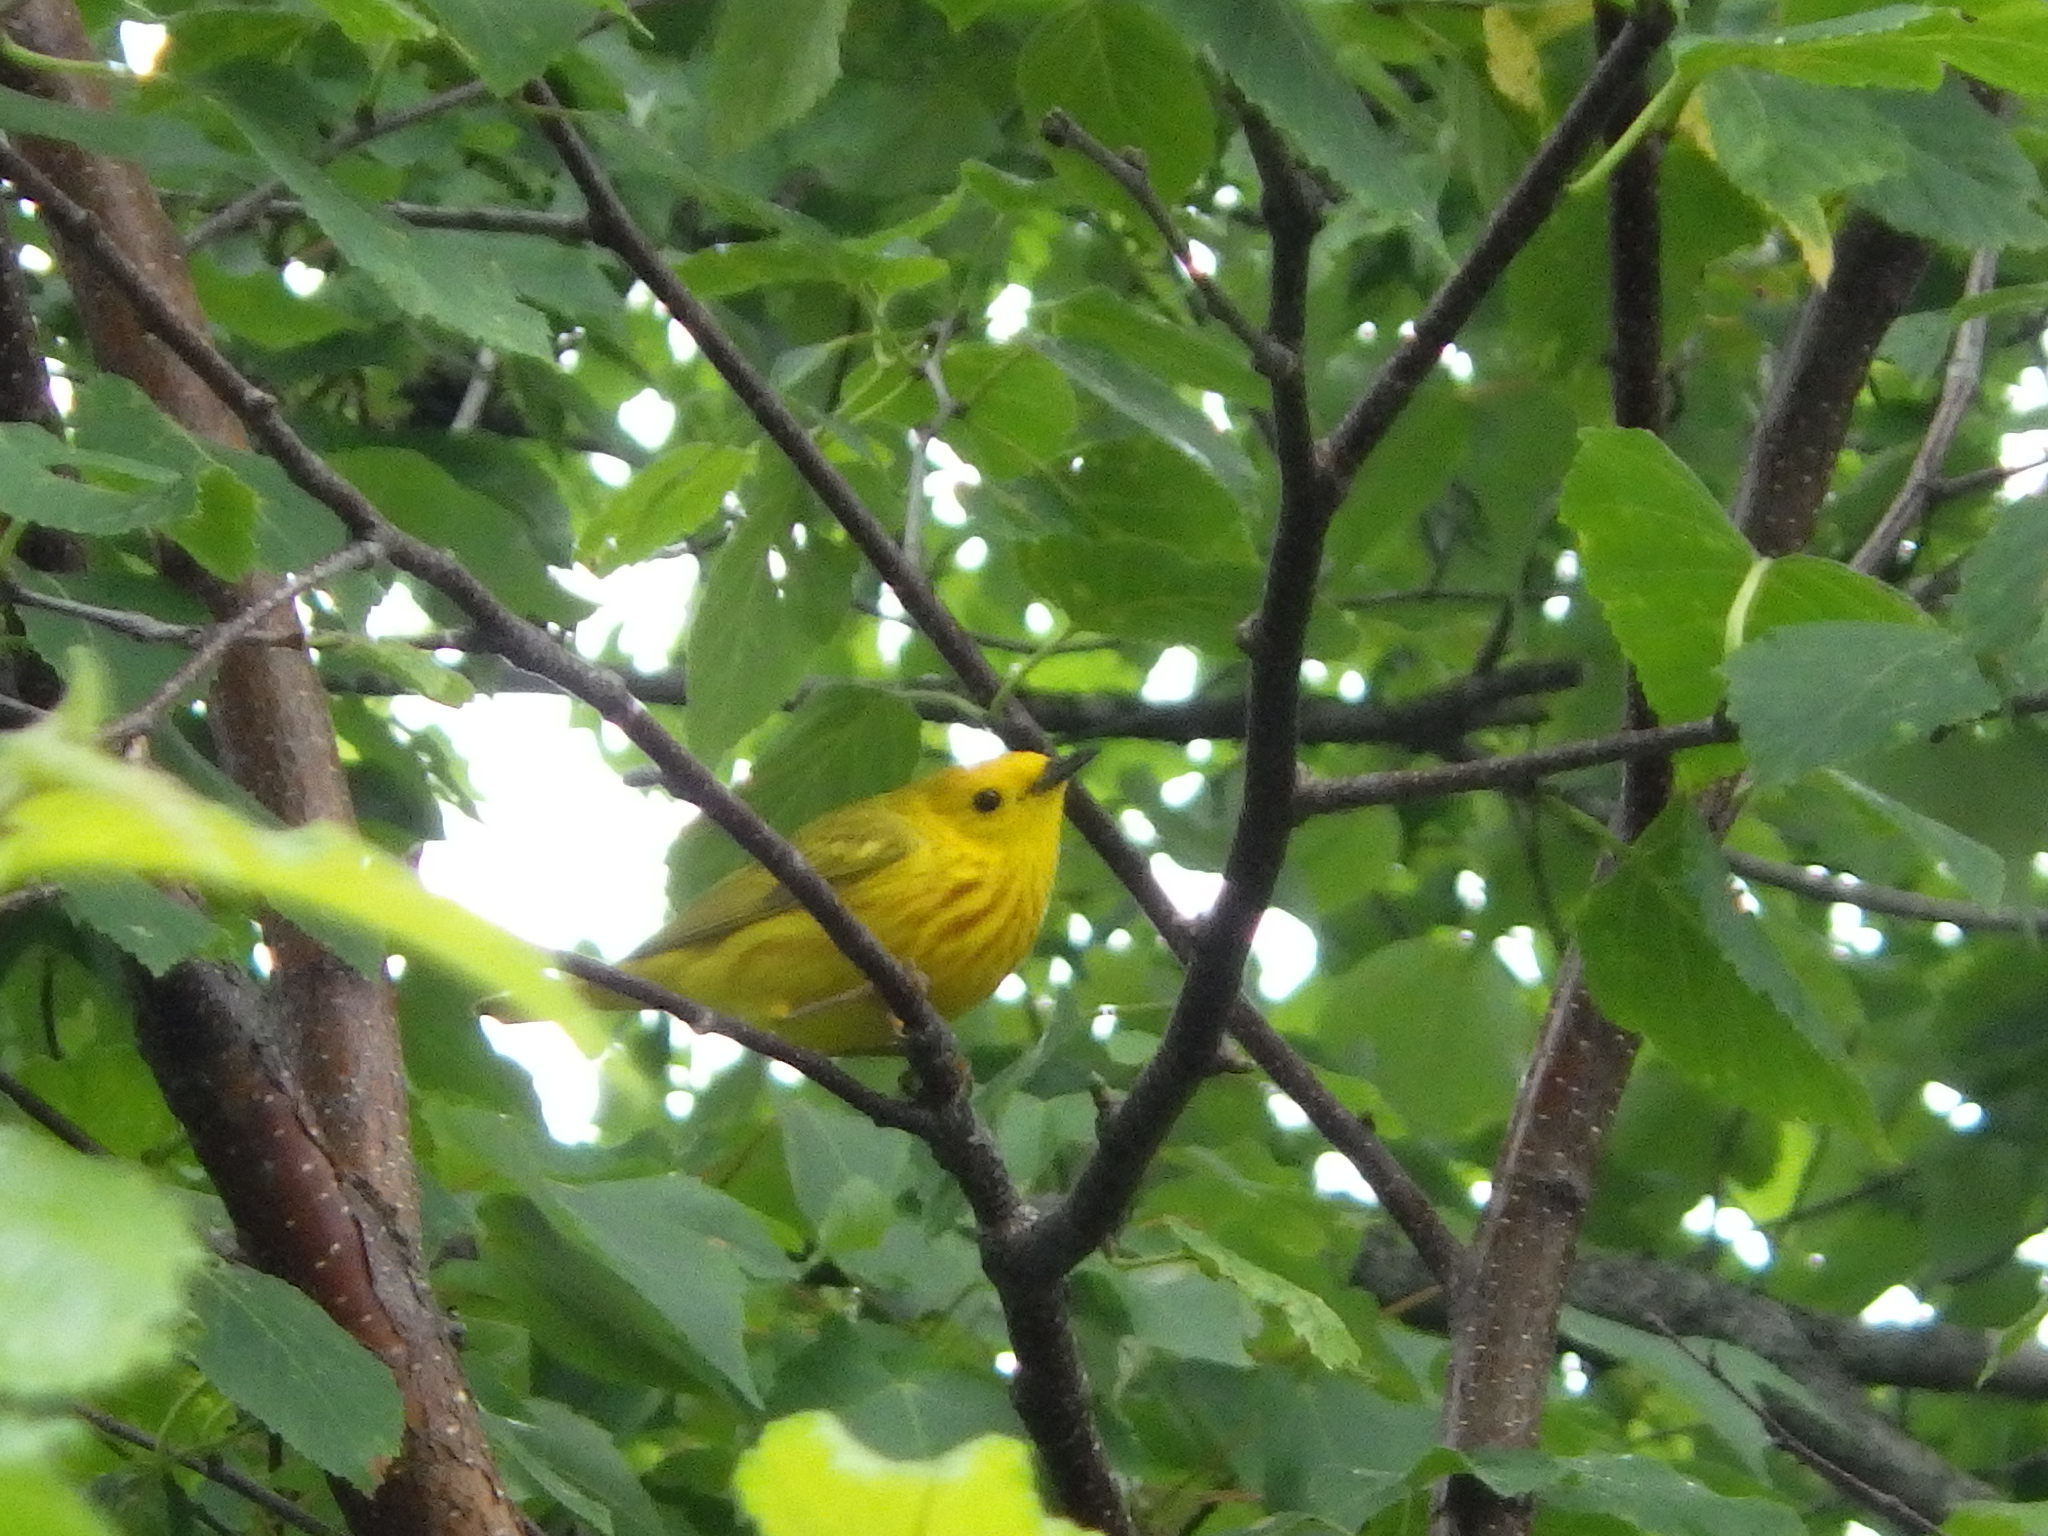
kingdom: Animalia
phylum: Chordata
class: Aves
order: Passeriformes
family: Parulidae
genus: Setophaga
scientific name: Setophaga petechia
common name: Yellow warbler
